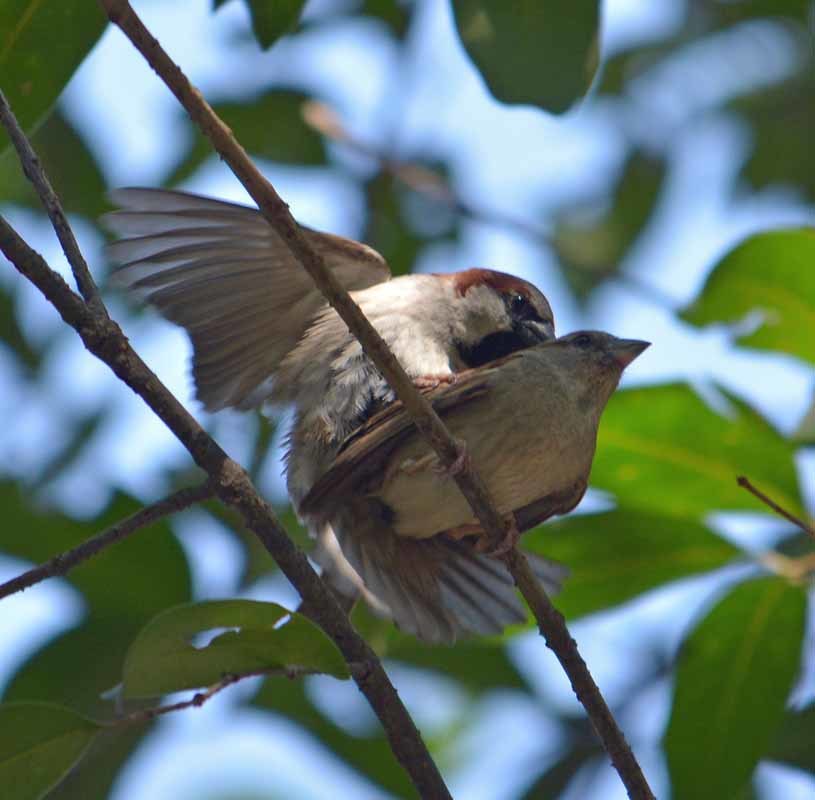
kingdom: Animalia
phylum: Chordata
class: Aves
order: Passeriformes
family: Passeridae
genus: Passer
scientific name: Passer domesticus
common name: House sparrow
